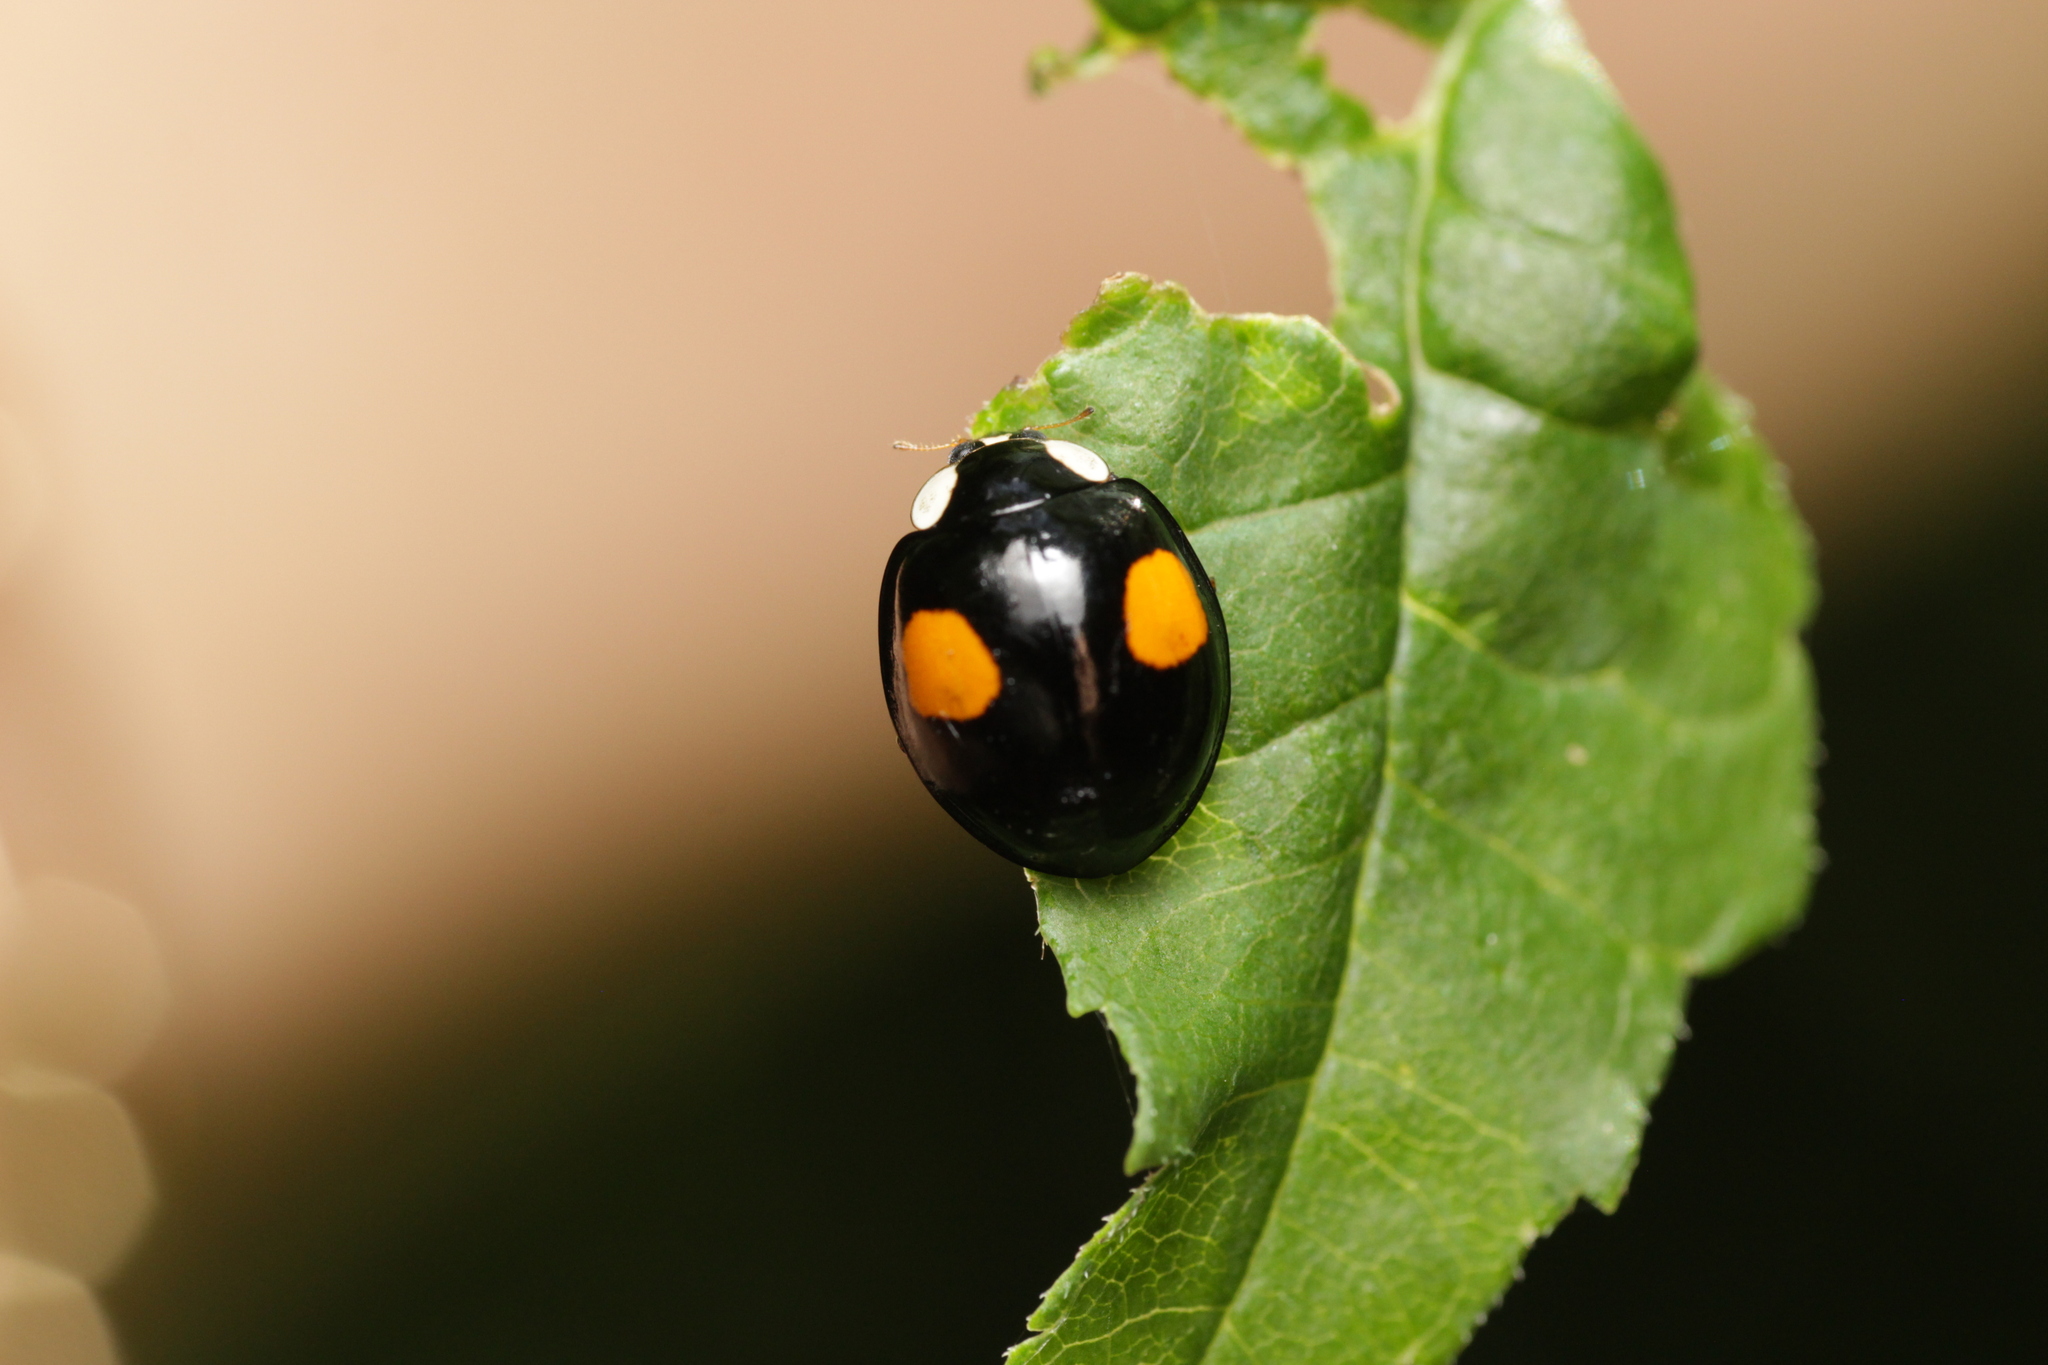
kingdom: Animalia
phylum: Arthropoda
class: Insecta
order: Coleoptera
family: Coccinellidae
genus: Harmonia
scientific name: Harmonia axyridis
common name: Harlequin ladybird
